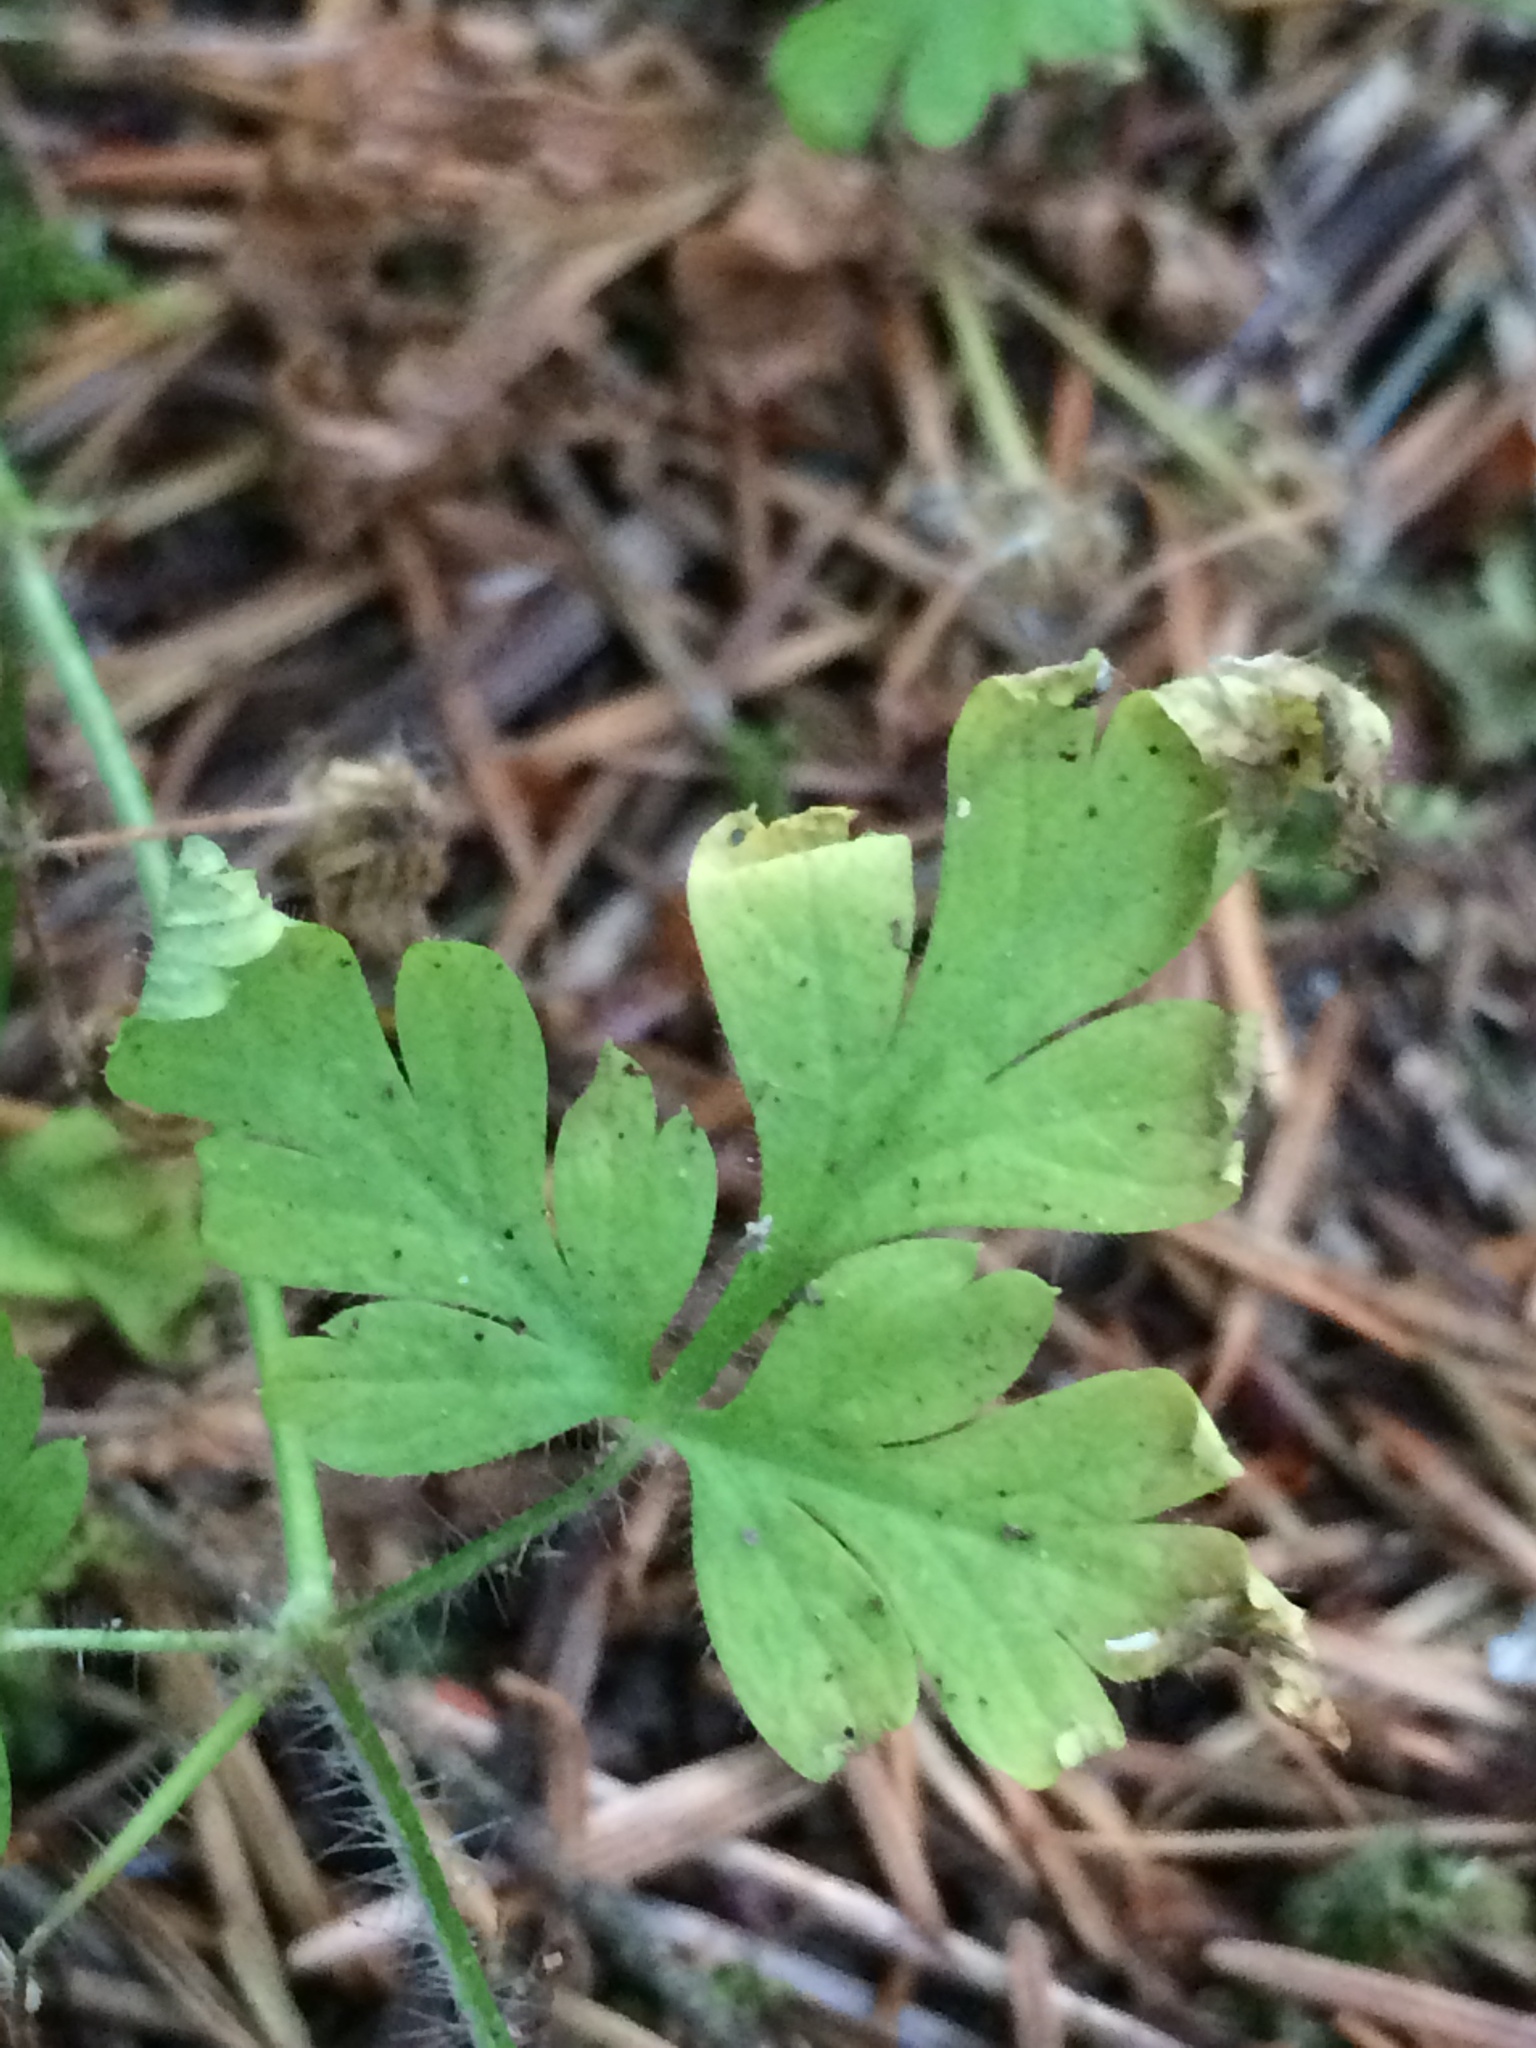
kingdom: Plantae
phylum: Tracheophyta
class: Magnoliopsida
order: Geraniales
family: Geraniaceae
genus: Geranium
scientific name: Geranium robertianum
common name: Herb-robert
